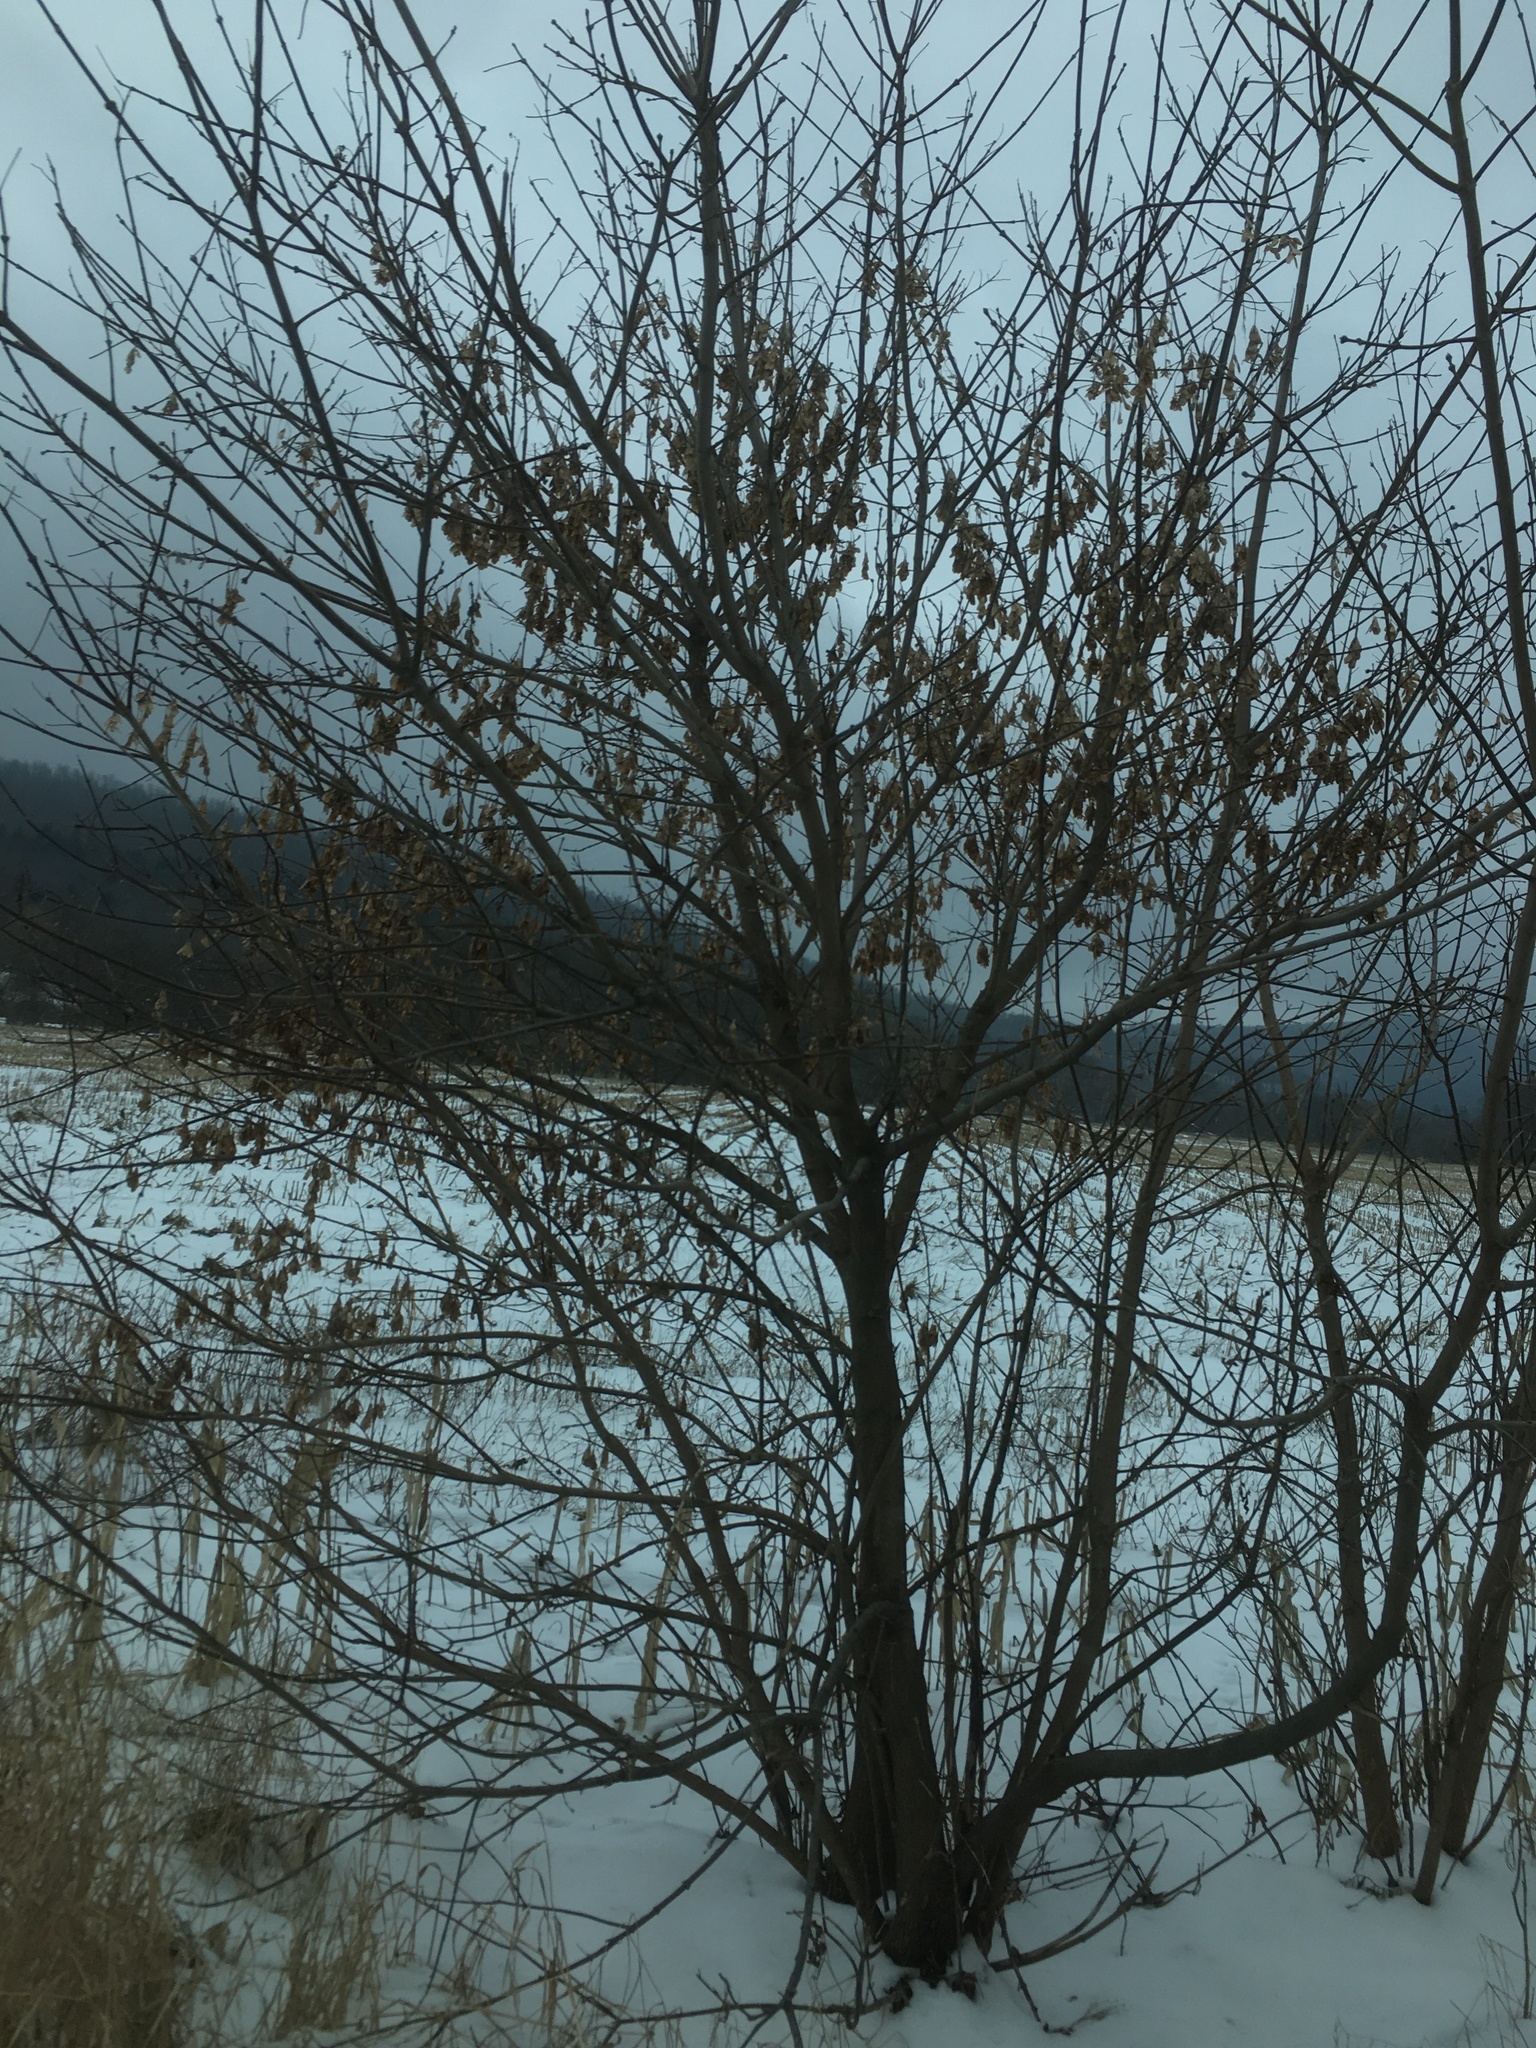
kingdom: Plantae
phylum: Tracheophyta
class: Magnoliopsida
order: Sapindales
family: Sapindaceae
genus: Acer
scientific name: Acer negundo
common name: Ashleaf maple
